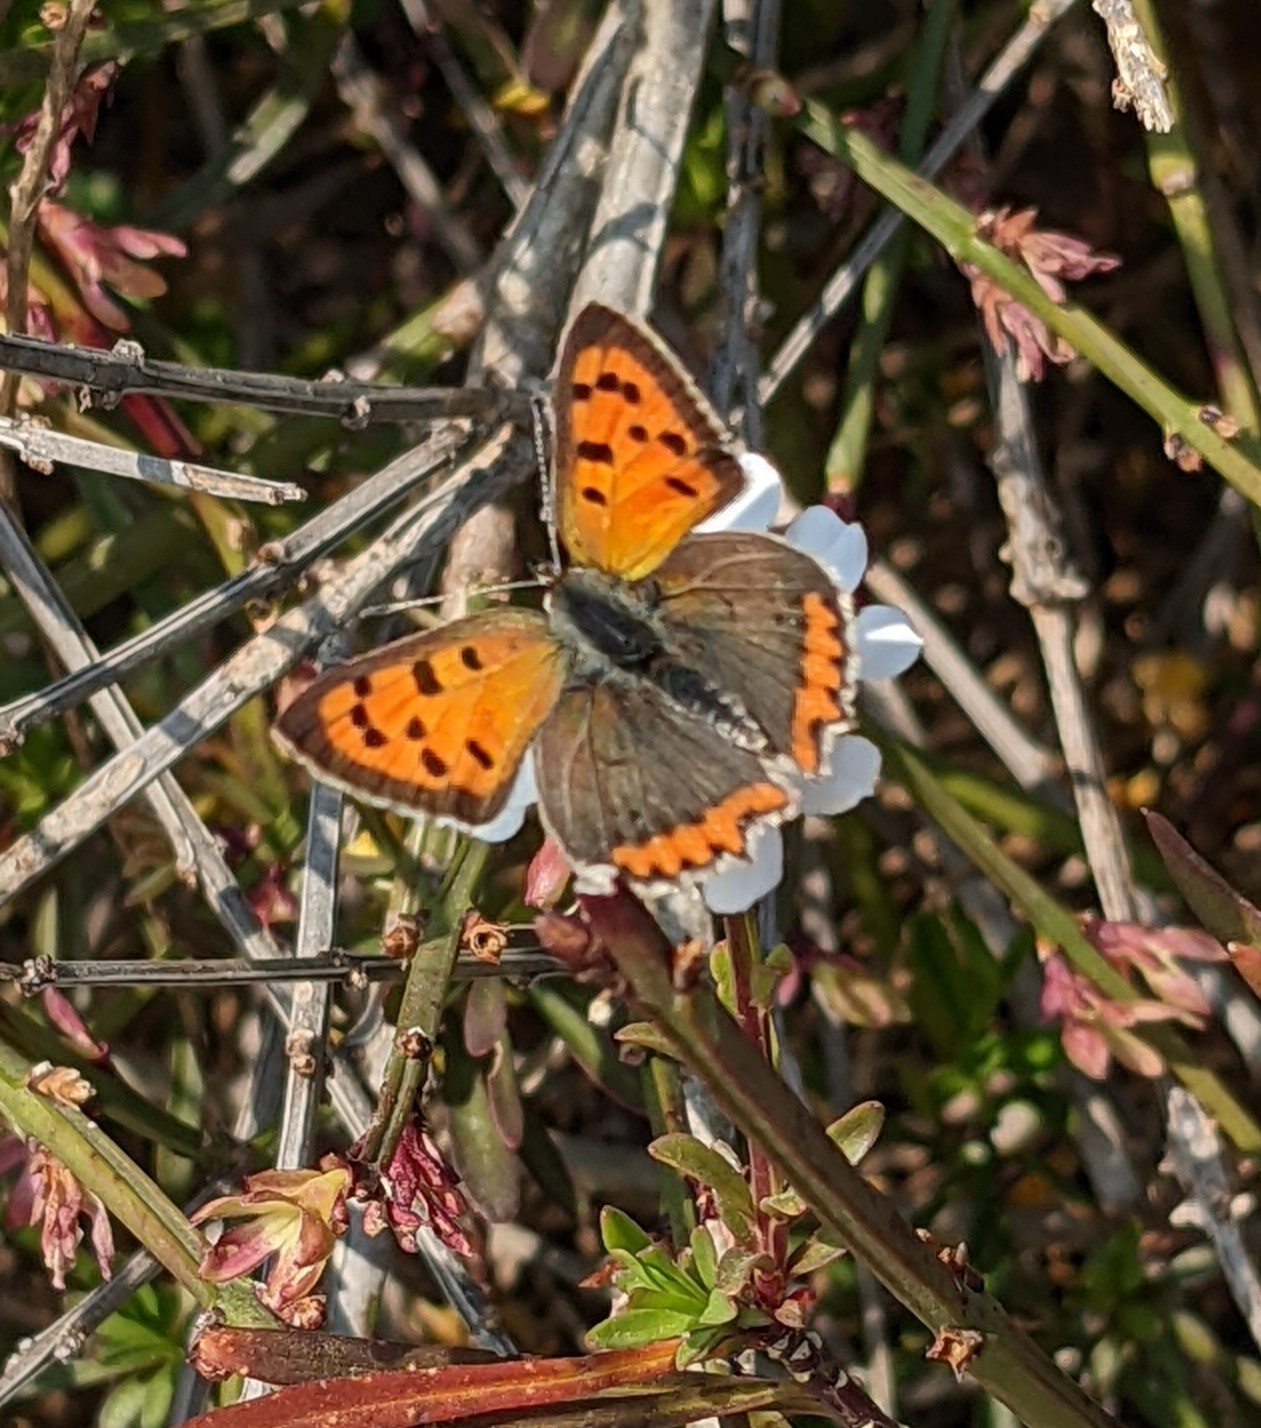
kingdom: Animalia
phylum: Arthropoda
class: Insecta
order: Lepidoptera
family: Lycaenidae
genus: Lycaena
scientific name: Lycaena phlaeas
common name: Small copper
